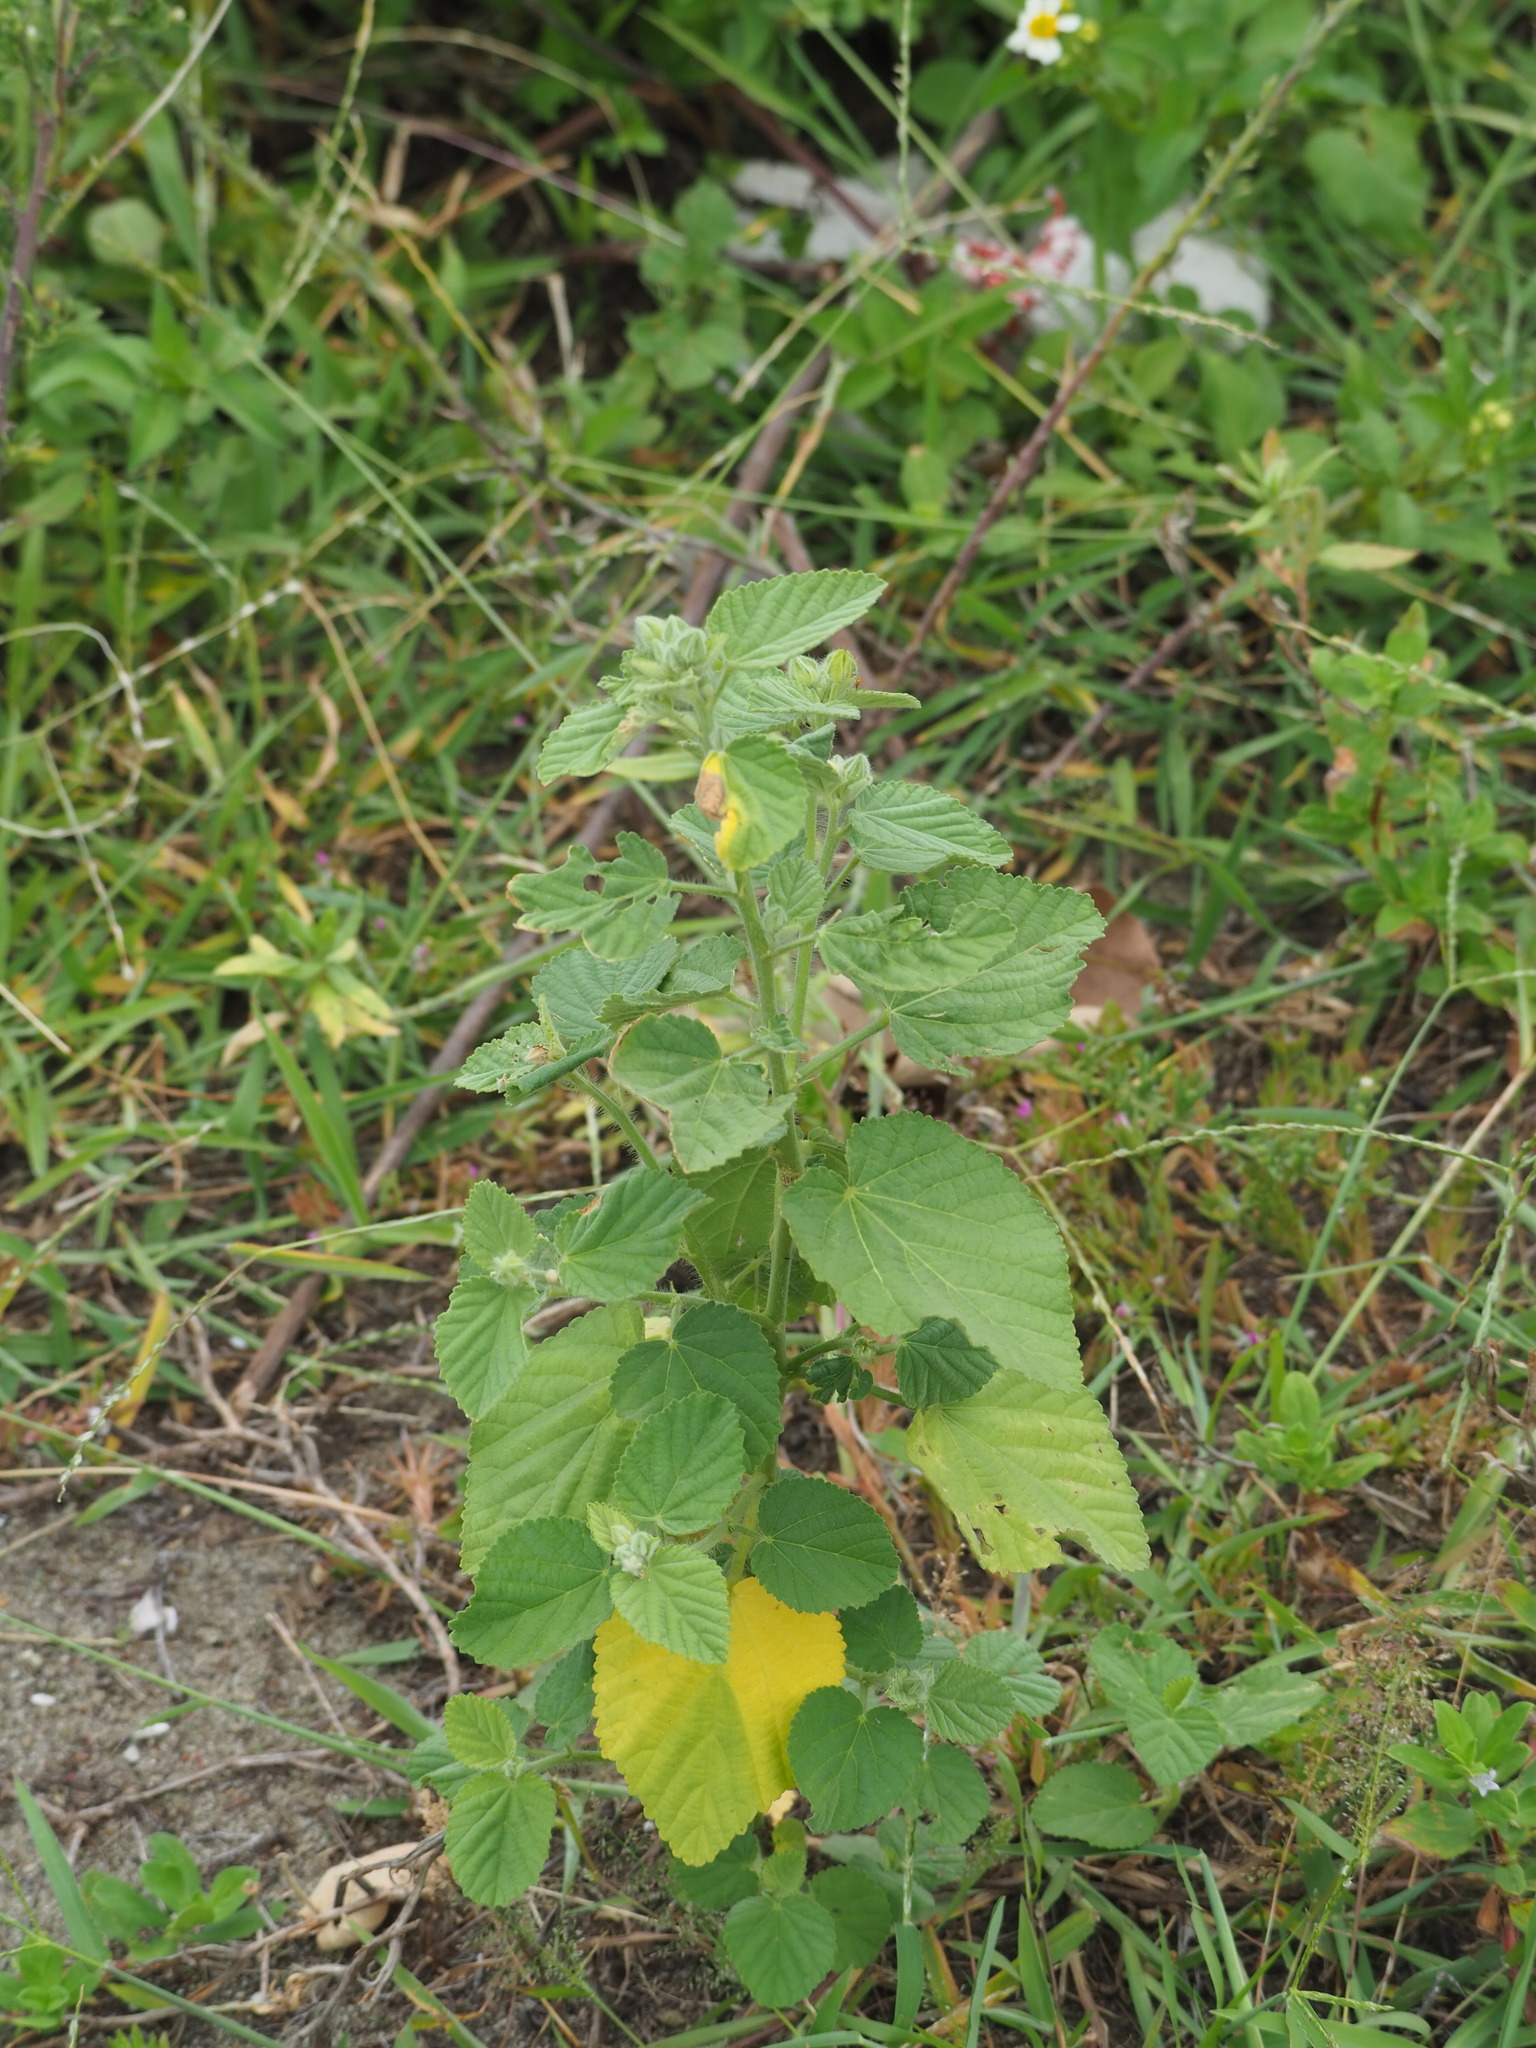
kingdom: Plantae
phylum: Tracheophyta
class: Magnoliopsida
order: Malvales
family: Malvaceae
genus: Sida
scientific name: Sida cordifolia
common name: Ilima
